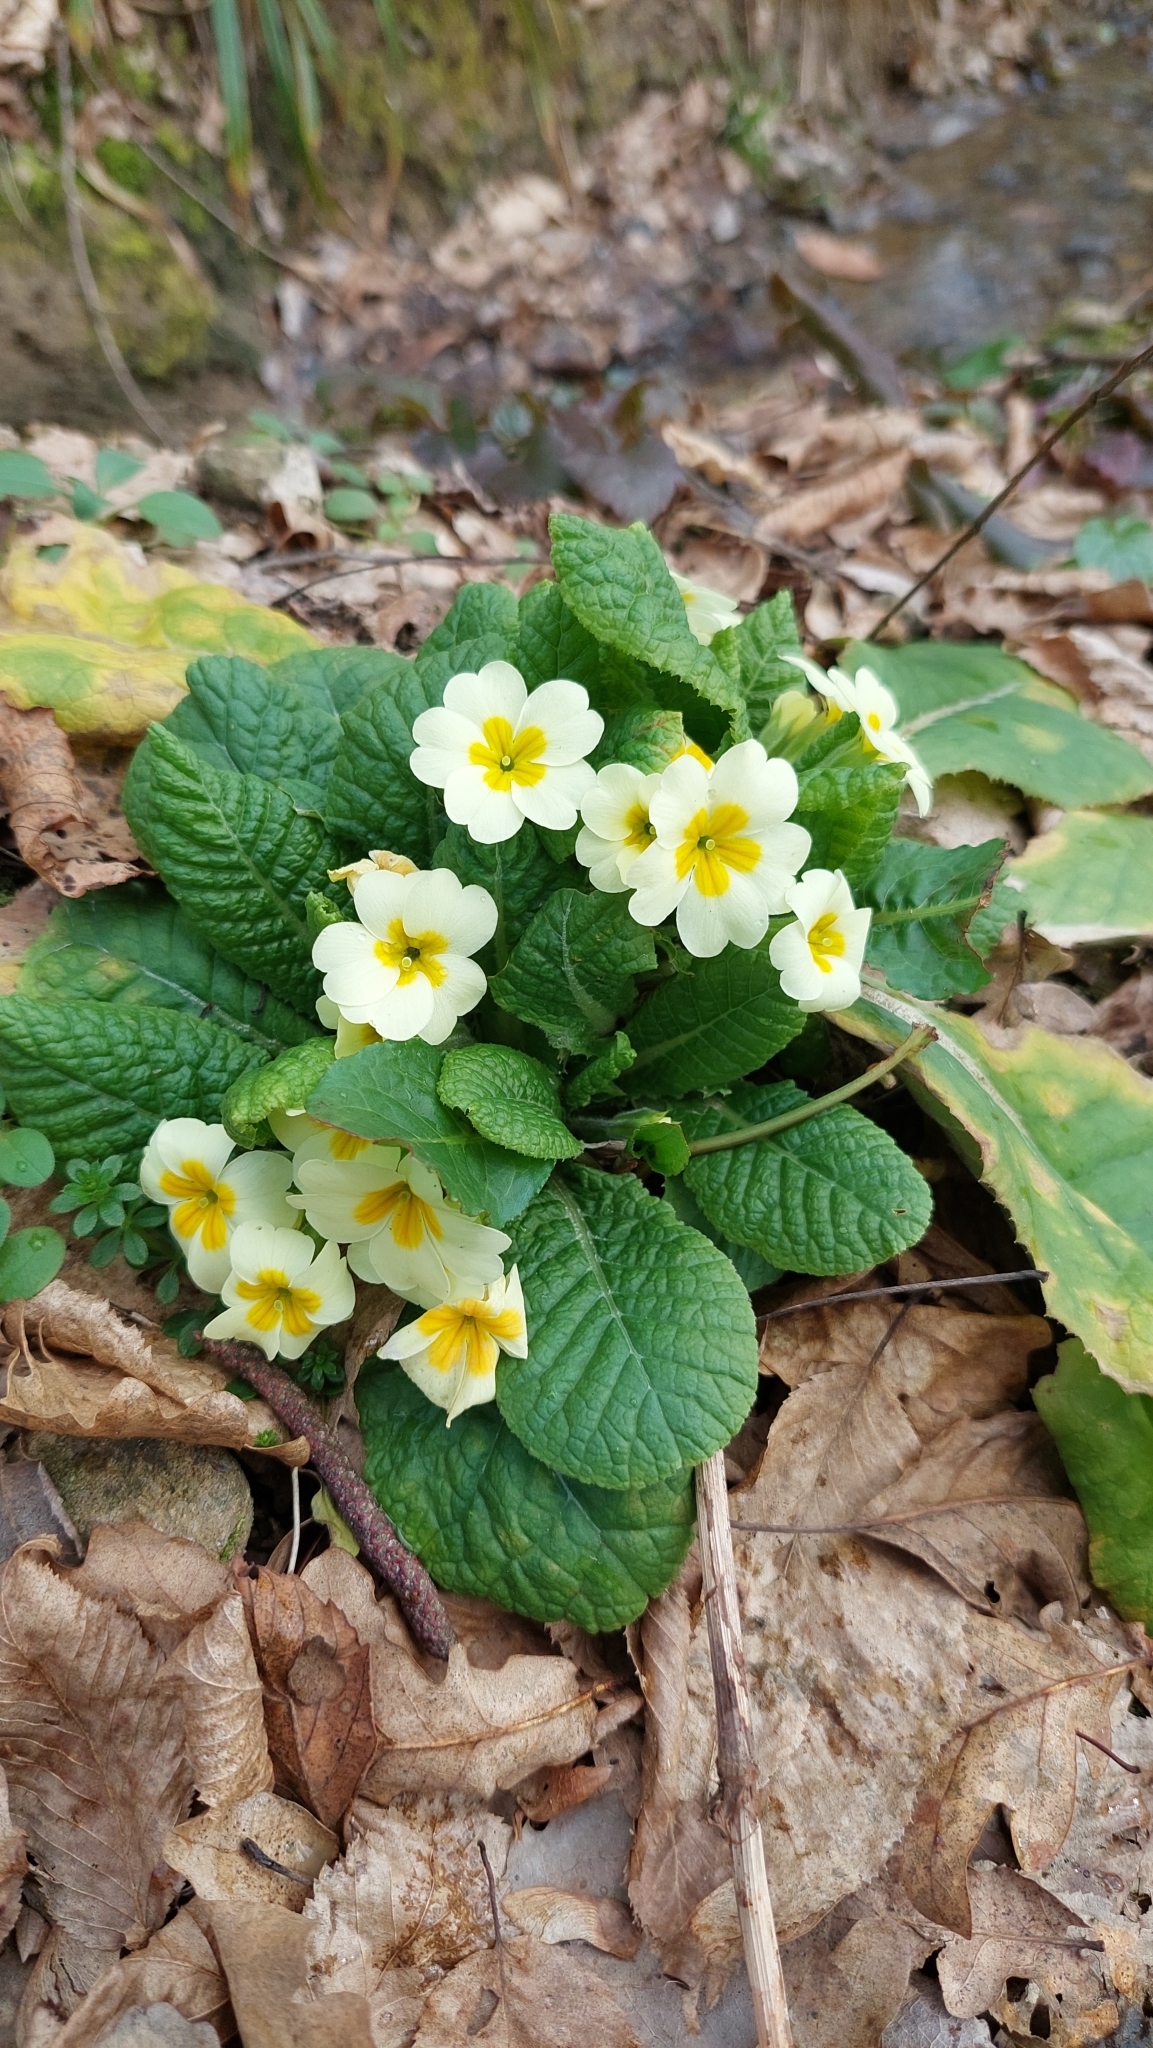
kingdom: Plantae
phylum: Tracheophyta
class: Magnoliopsida
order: Ericales
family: Primulaceae
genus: Primula
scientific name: Primula vulgaris
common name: Primrose
